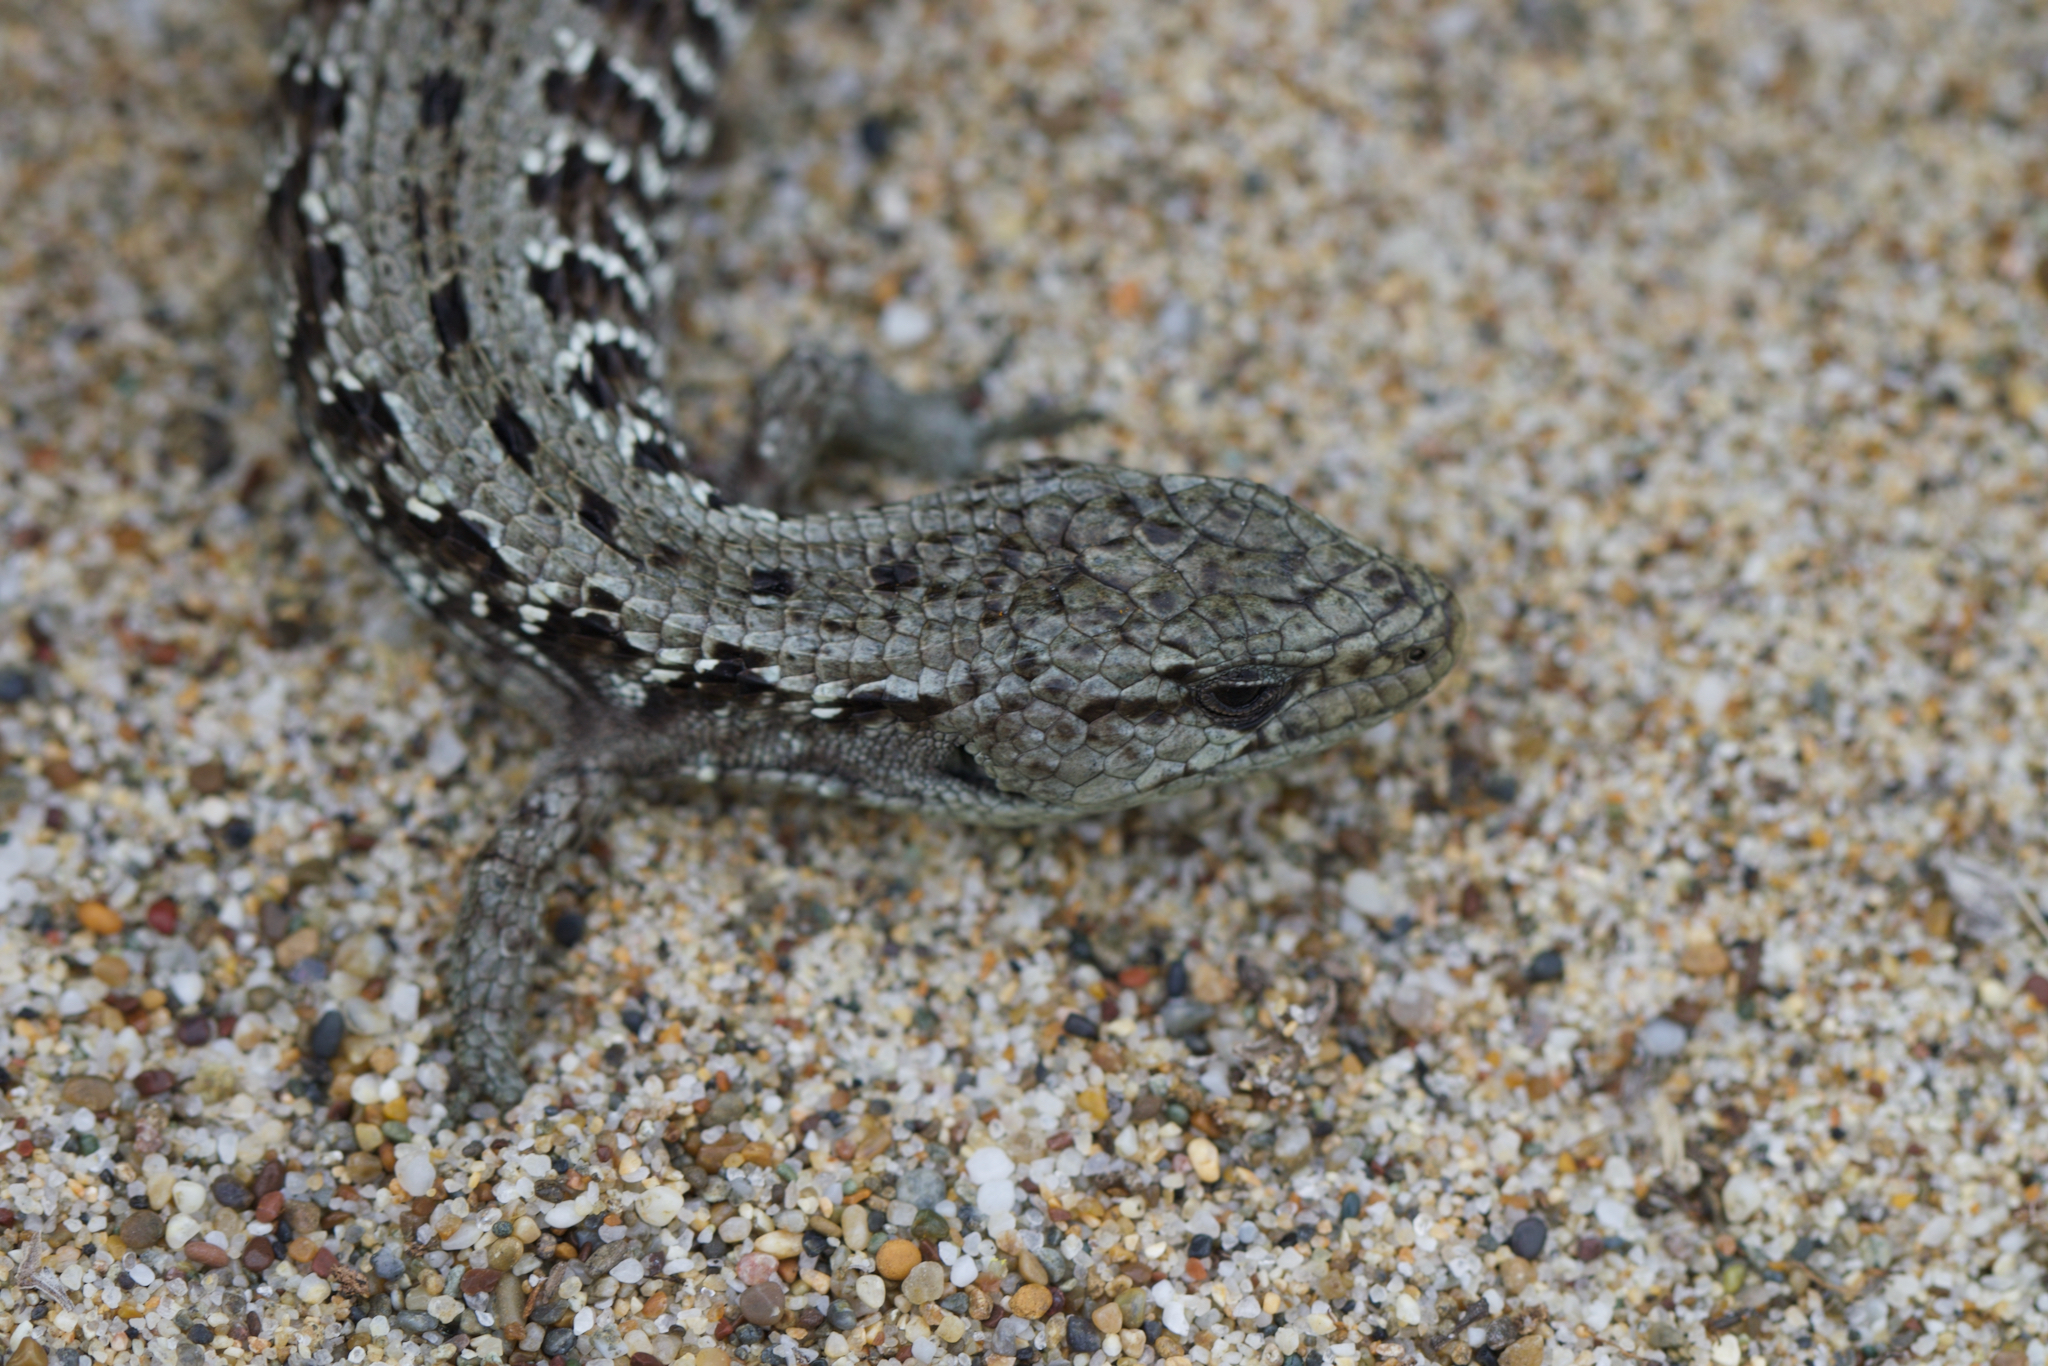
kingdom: Animalia
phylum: Chordata
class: Squamata
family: Anguidae
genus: Elgaria
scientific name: Elgaria coerulea
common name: Northern alligator lizard
